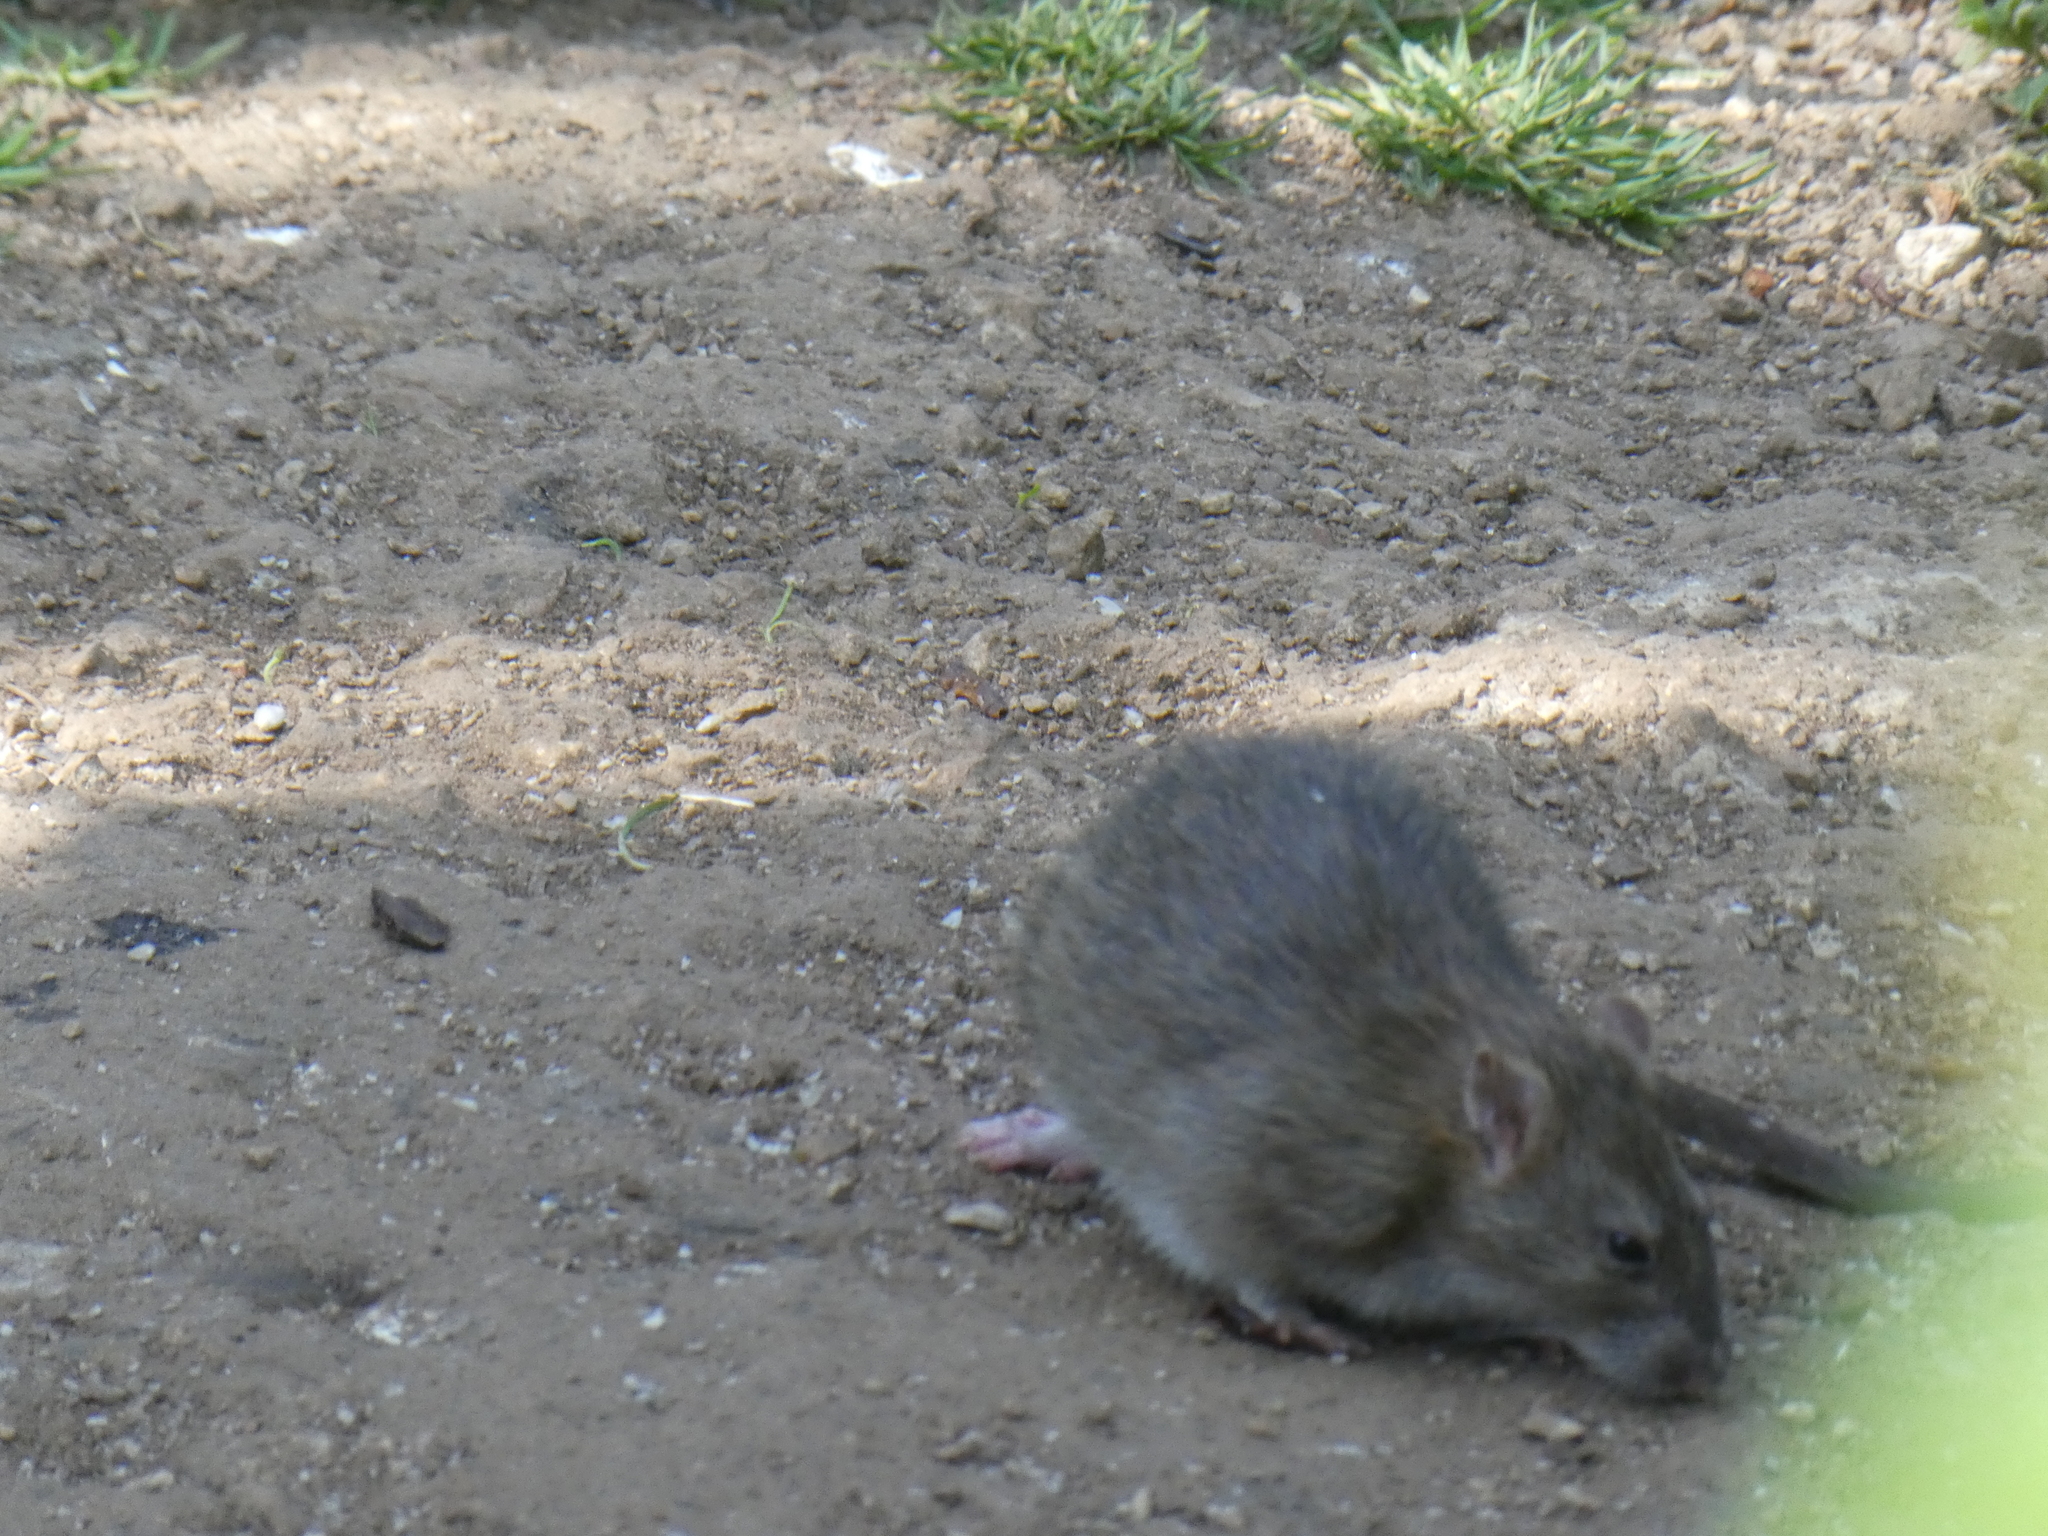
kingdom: Animalia
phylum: Chordata
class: Mammalia
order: Rodentia
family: Muridae
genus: Rattus
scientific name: Rattus norvegicus
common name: Brown rat
